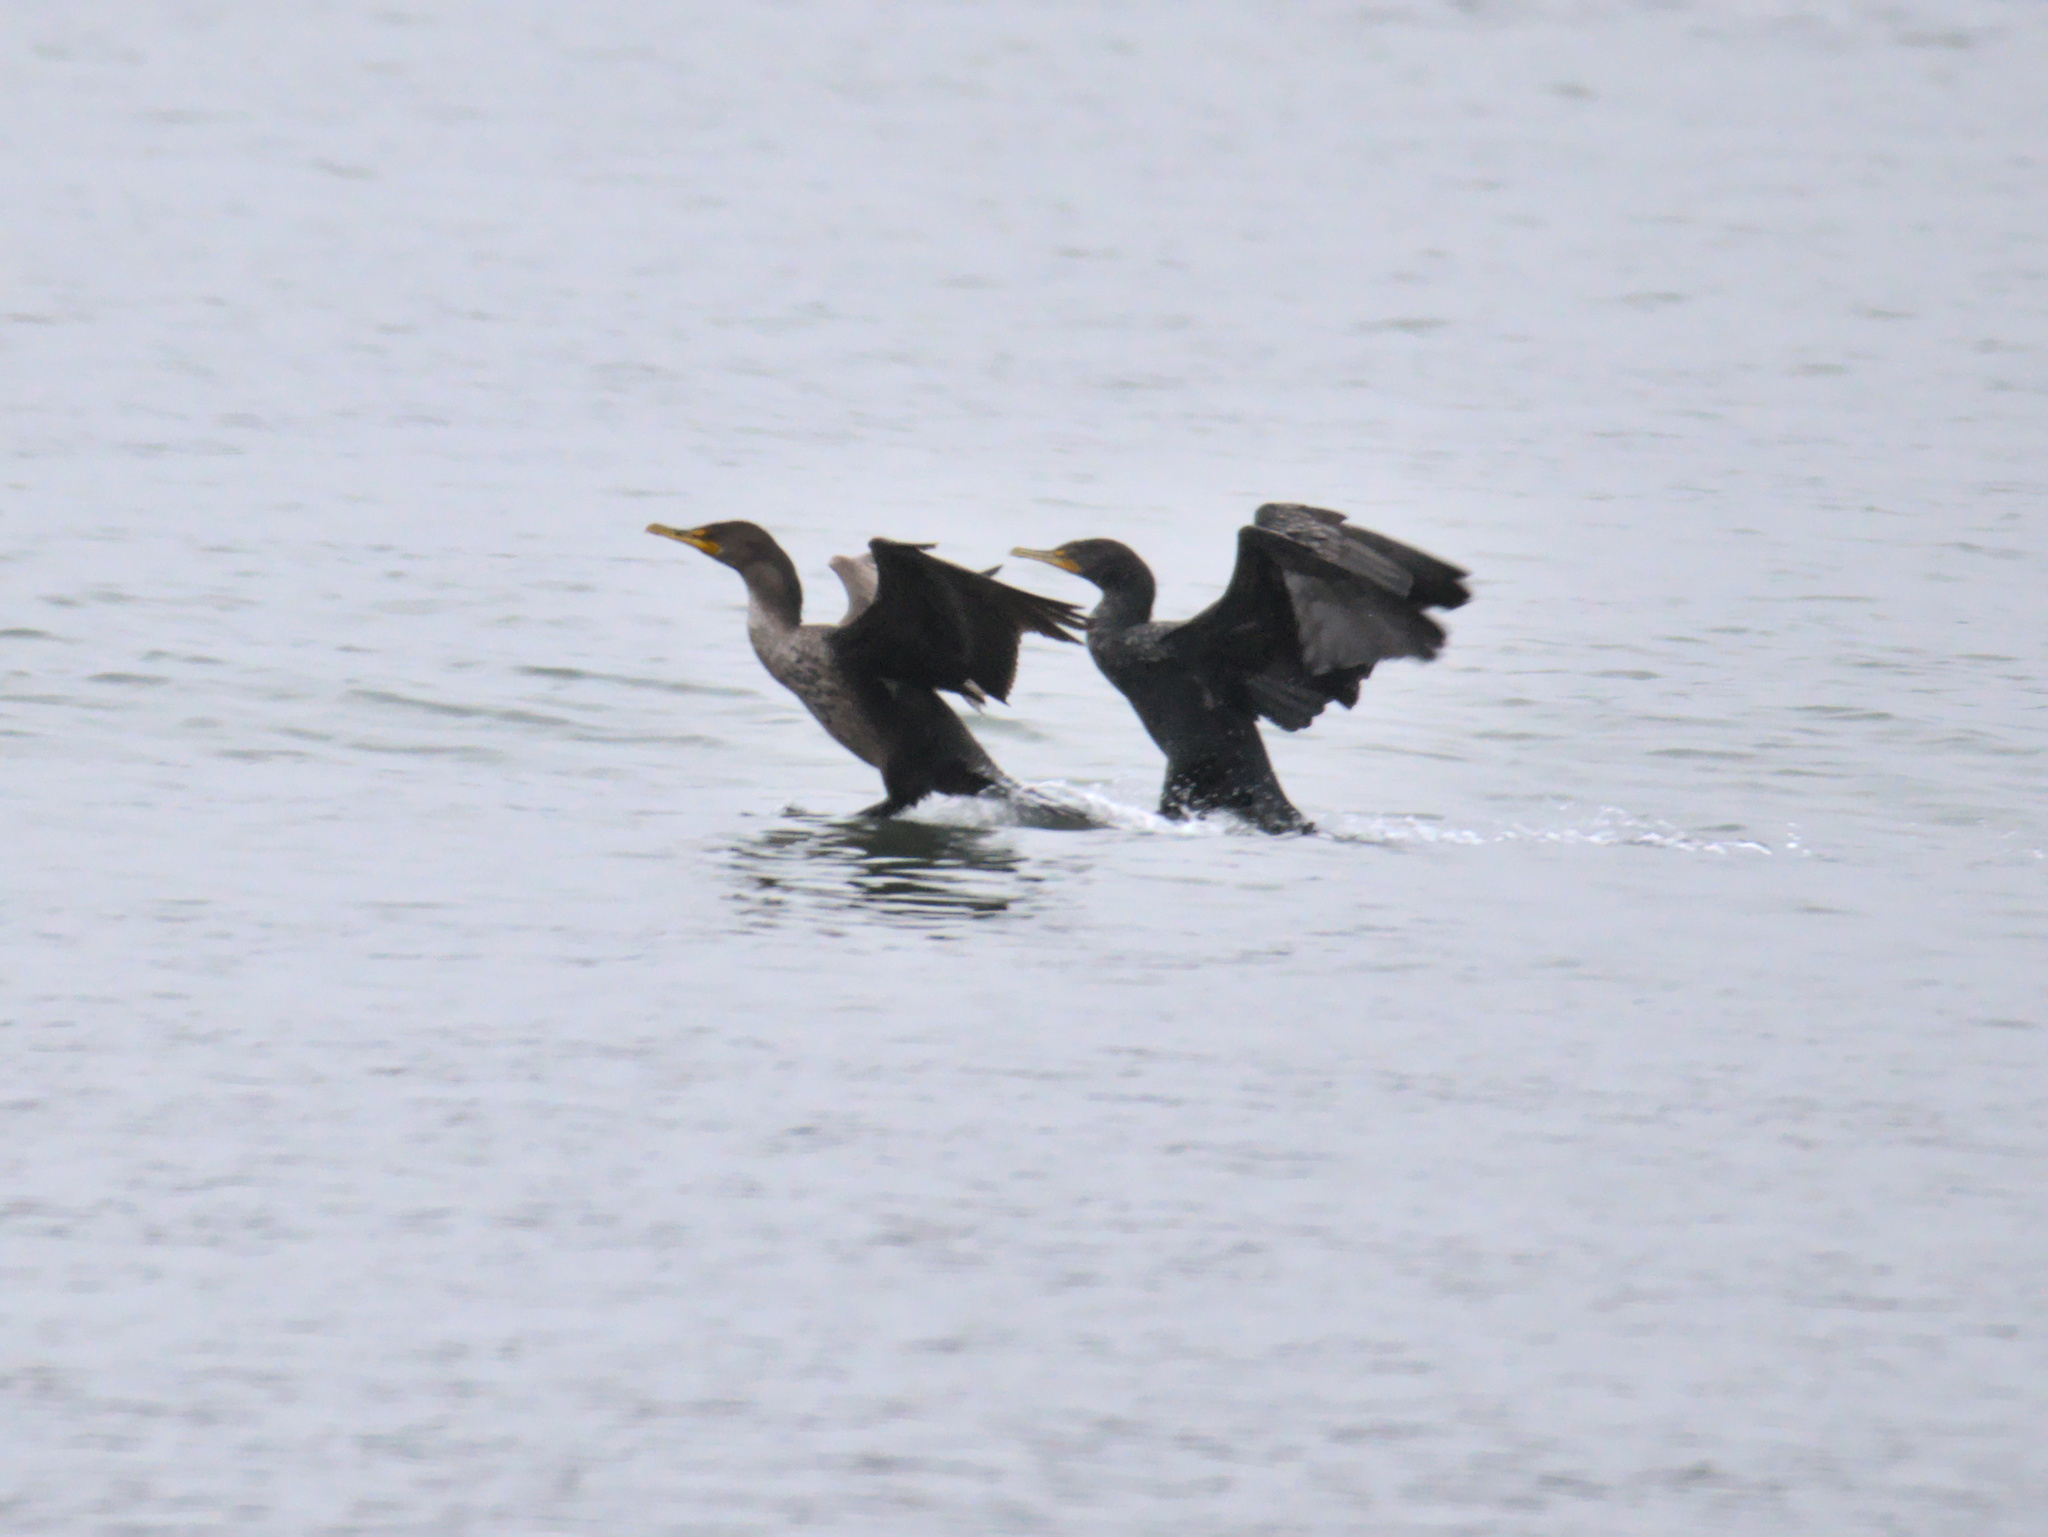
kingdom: Animalia
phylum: Chordata
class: Aves
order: Suliformes
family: Phalacrocoracidae
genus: Phalacrocorax
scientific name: Phalacrocorax auritus
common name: Double-crested cormorant
